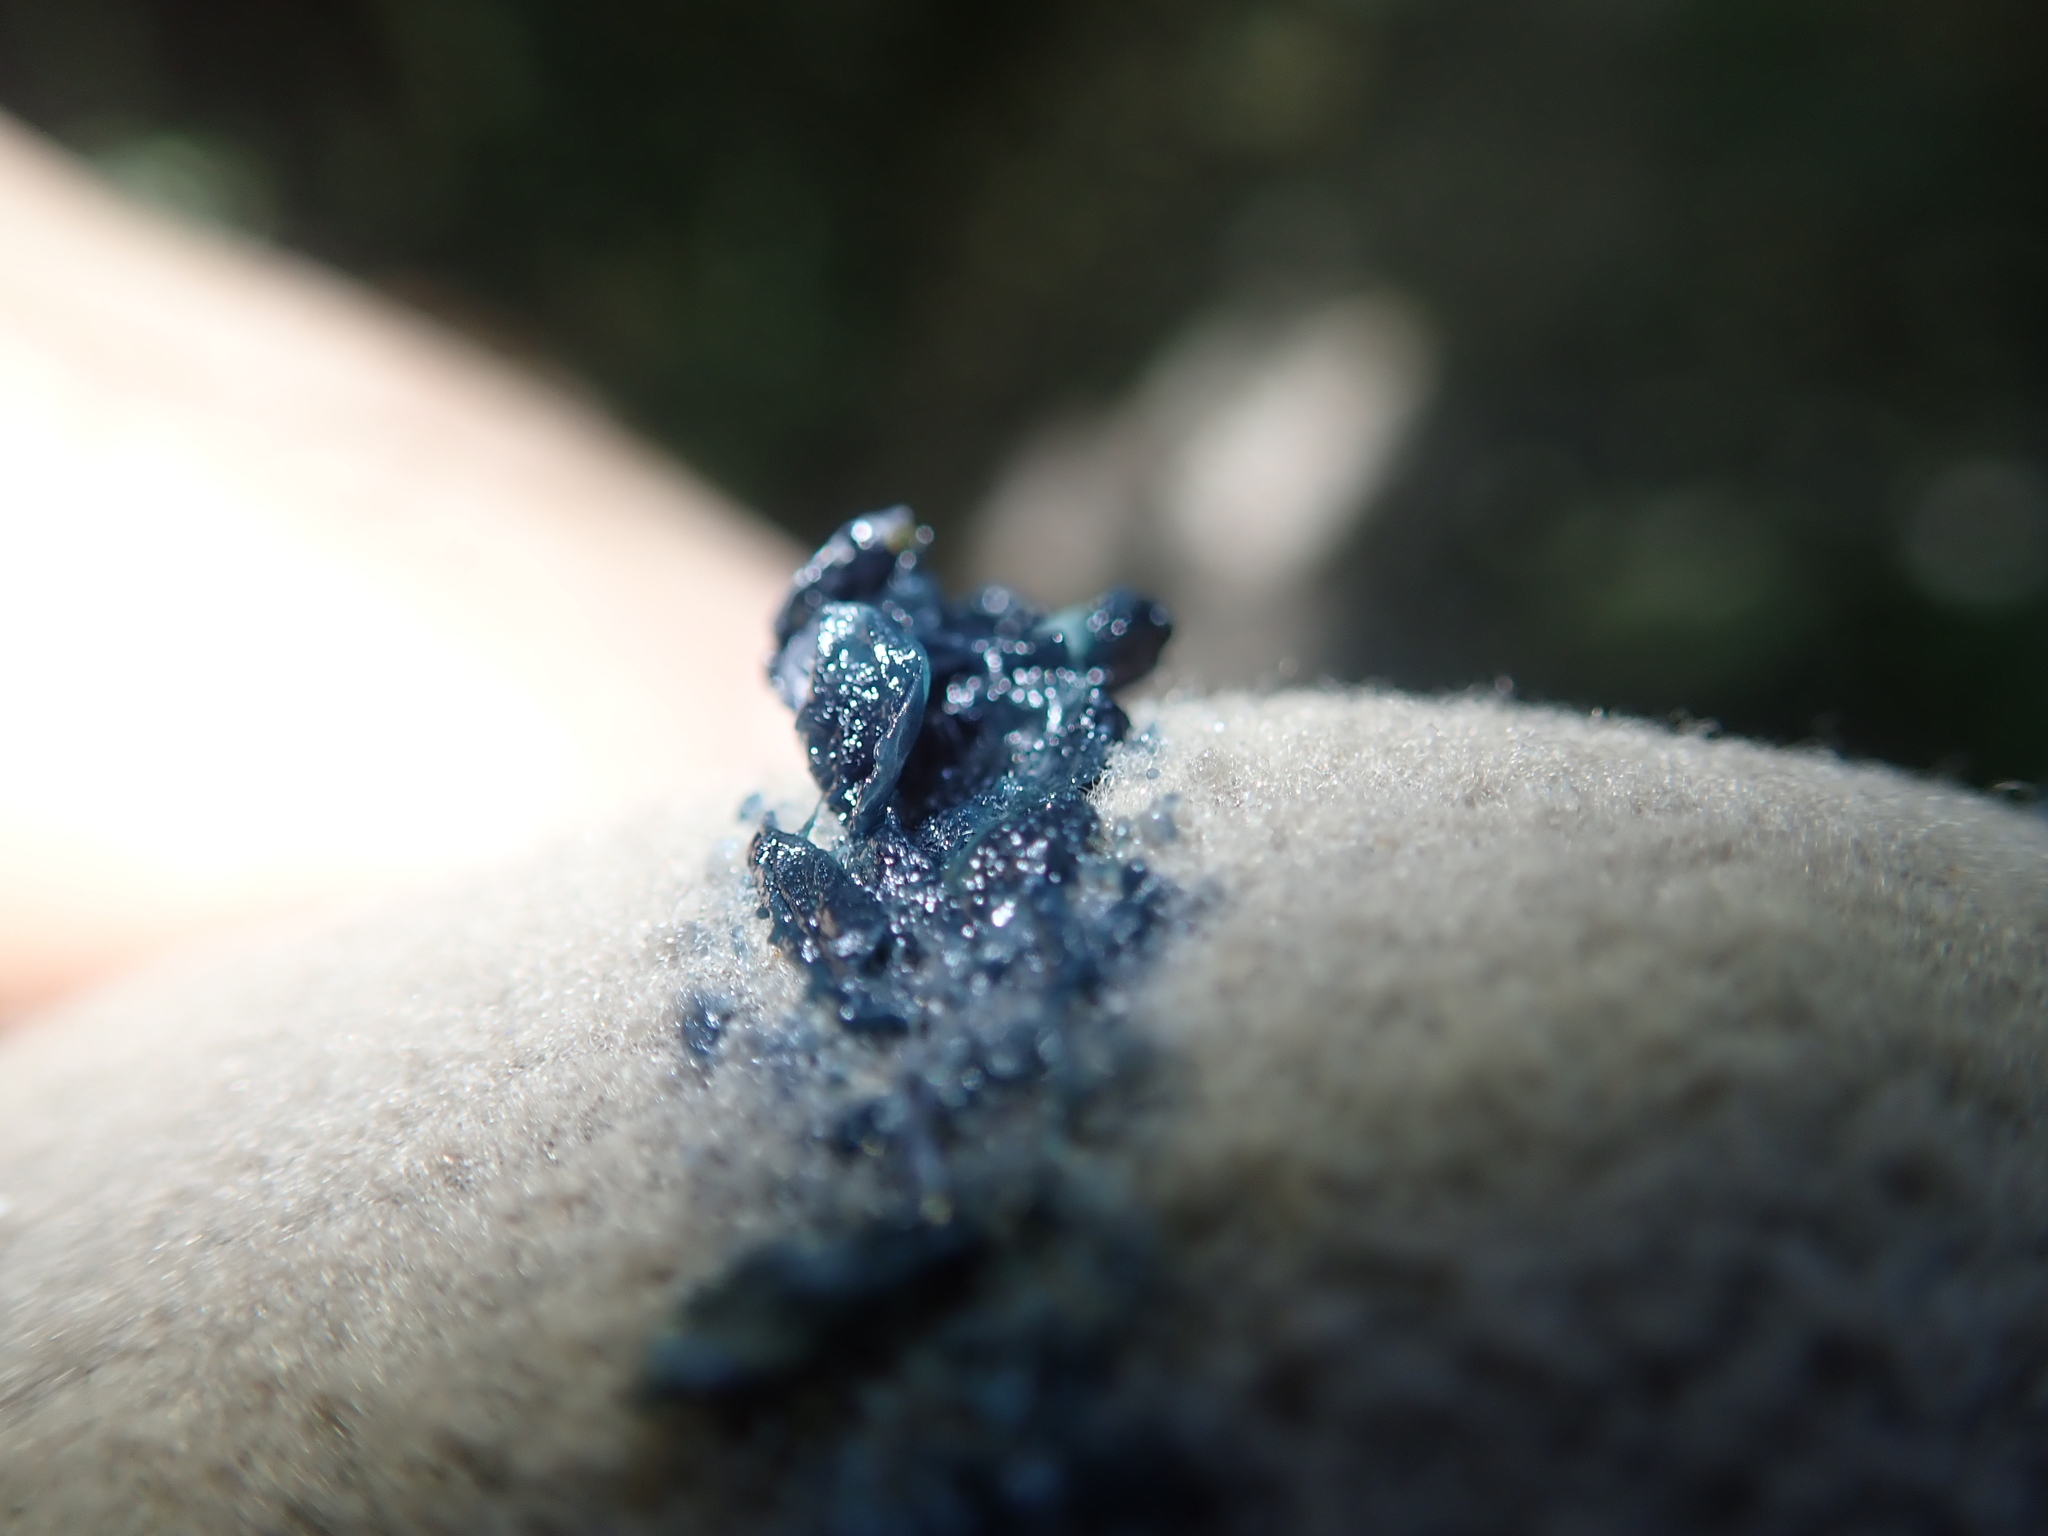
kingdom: Animalia
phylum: Chordata
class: Aves
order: Passeriformes
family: Meliphagidae
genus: Prosthemadera
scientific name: Prosthemadera novaeseelandiae
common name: Tui
